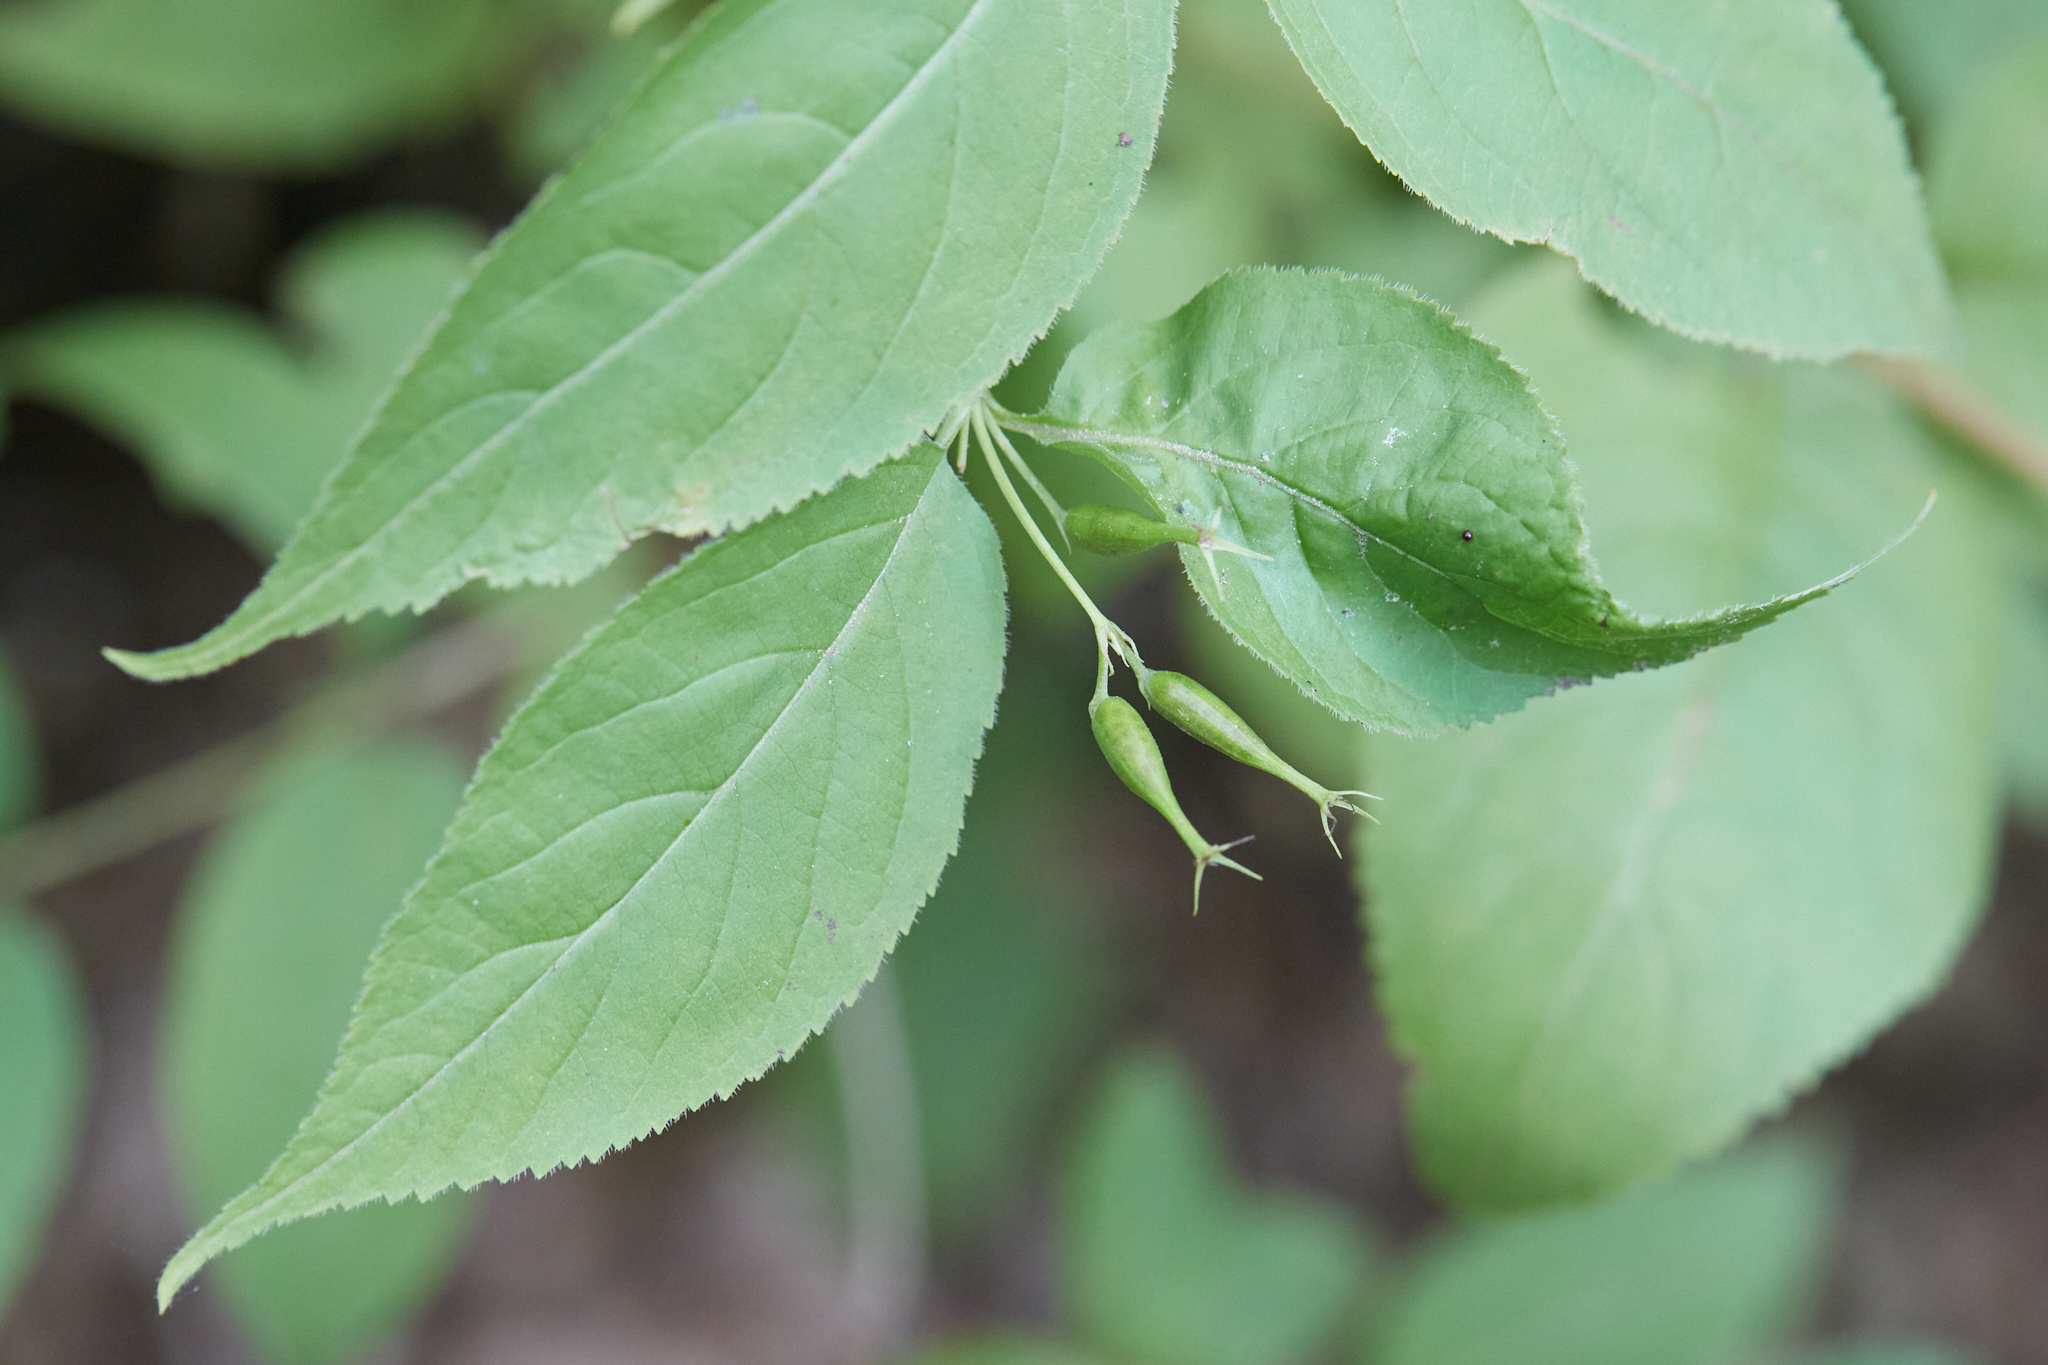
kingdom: Plantae
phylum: Tracheophyta
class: Magnoliopsida
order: Dipsacales
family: Caprifoliaceae
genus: Diervilla
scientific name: Diervilla lonicera
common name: Bush-honeysuckle
